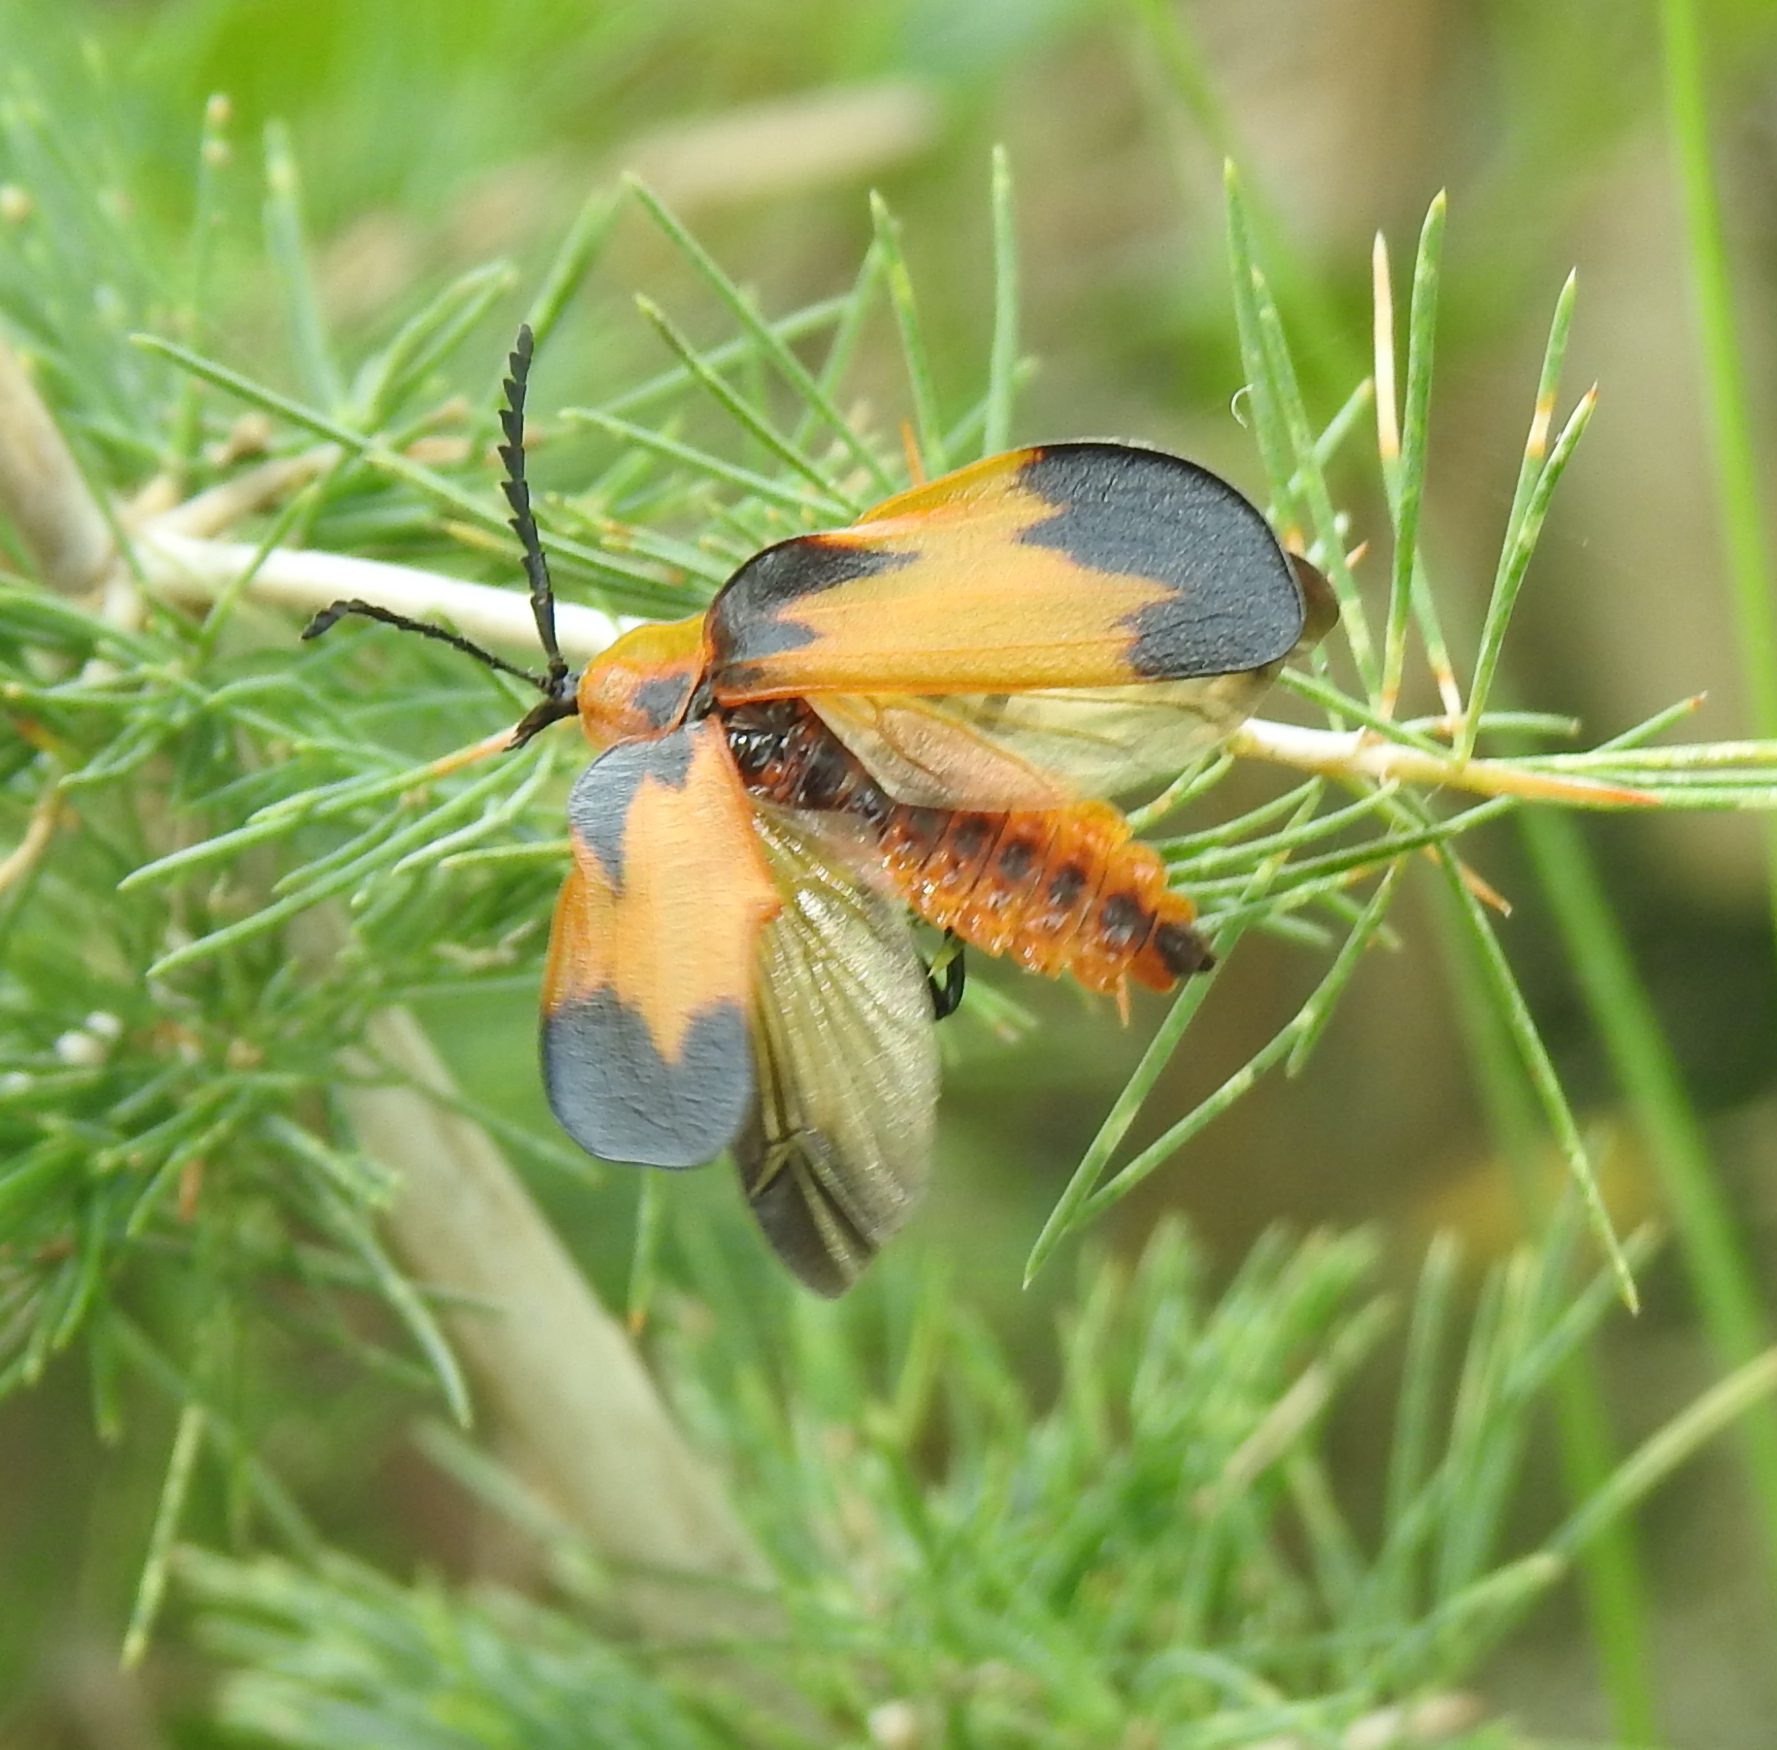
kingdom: Animalia
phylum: Arthropoda
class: Insecta
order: Coleoptera
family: Lycidae
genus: Lycus
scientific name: Lycus
